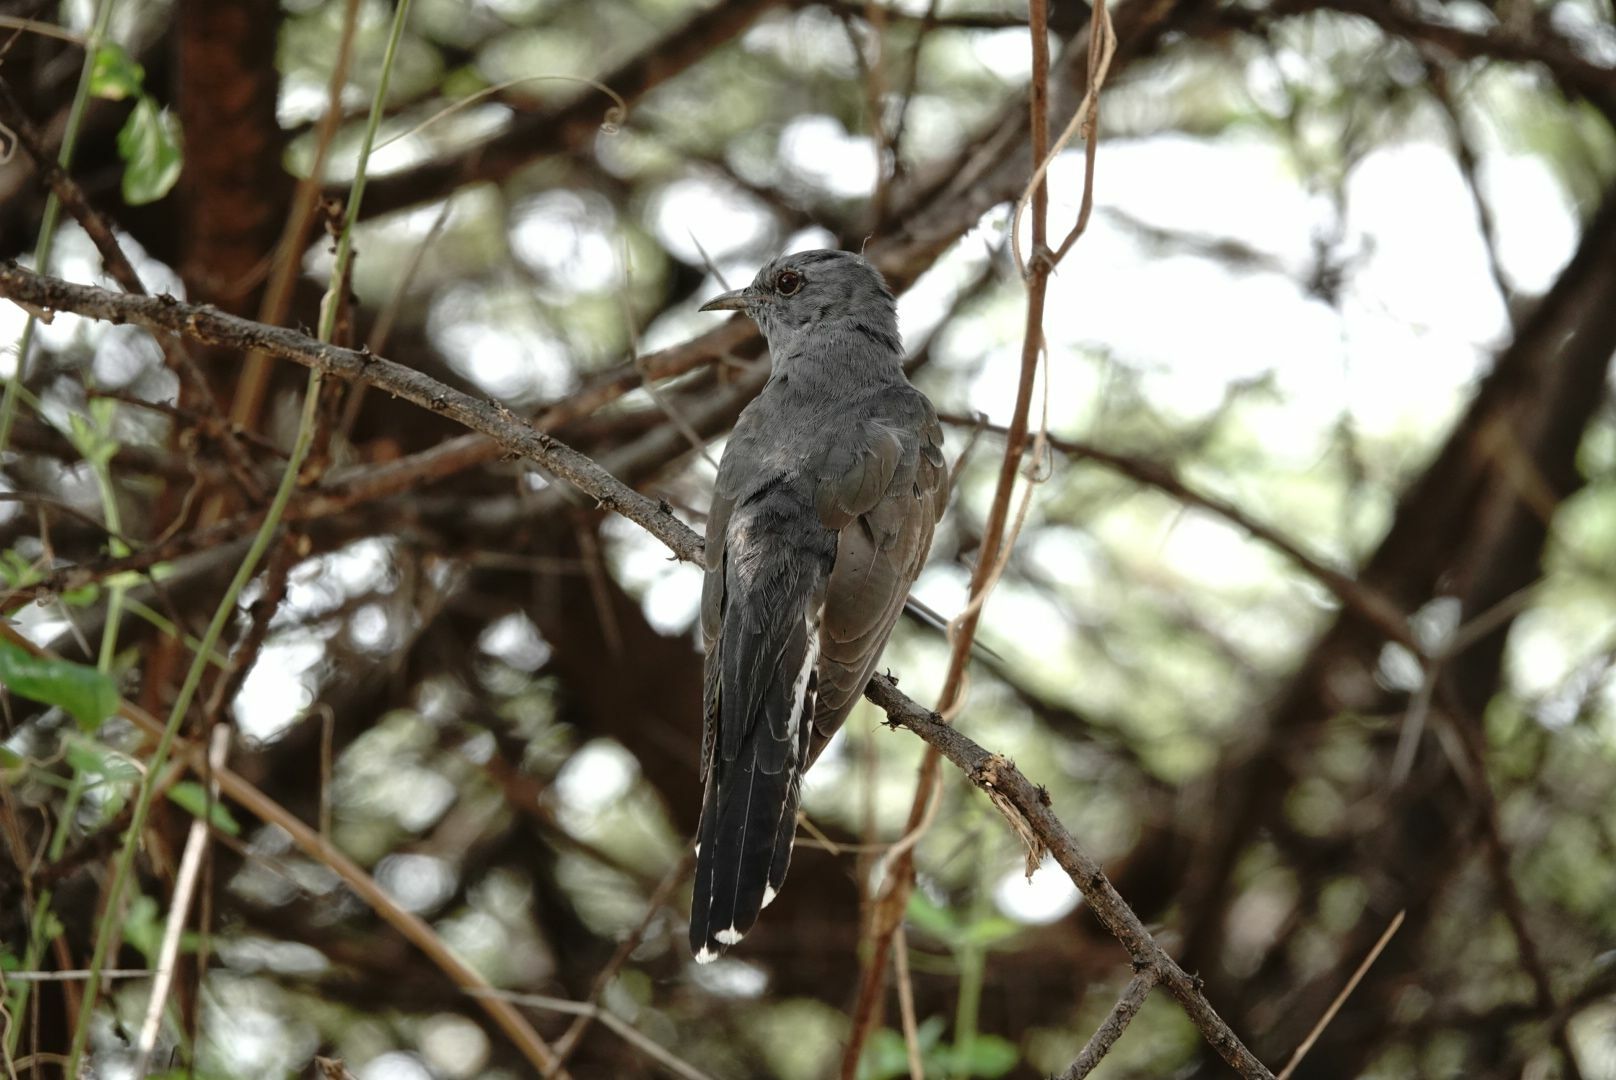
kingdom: Animalia
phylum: Chordata
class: Aves
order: Cuculiformes
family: Cuculidae
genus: Cacomantis
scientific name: Cacomantis passerinus
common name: Grey-bellied cuckoo
